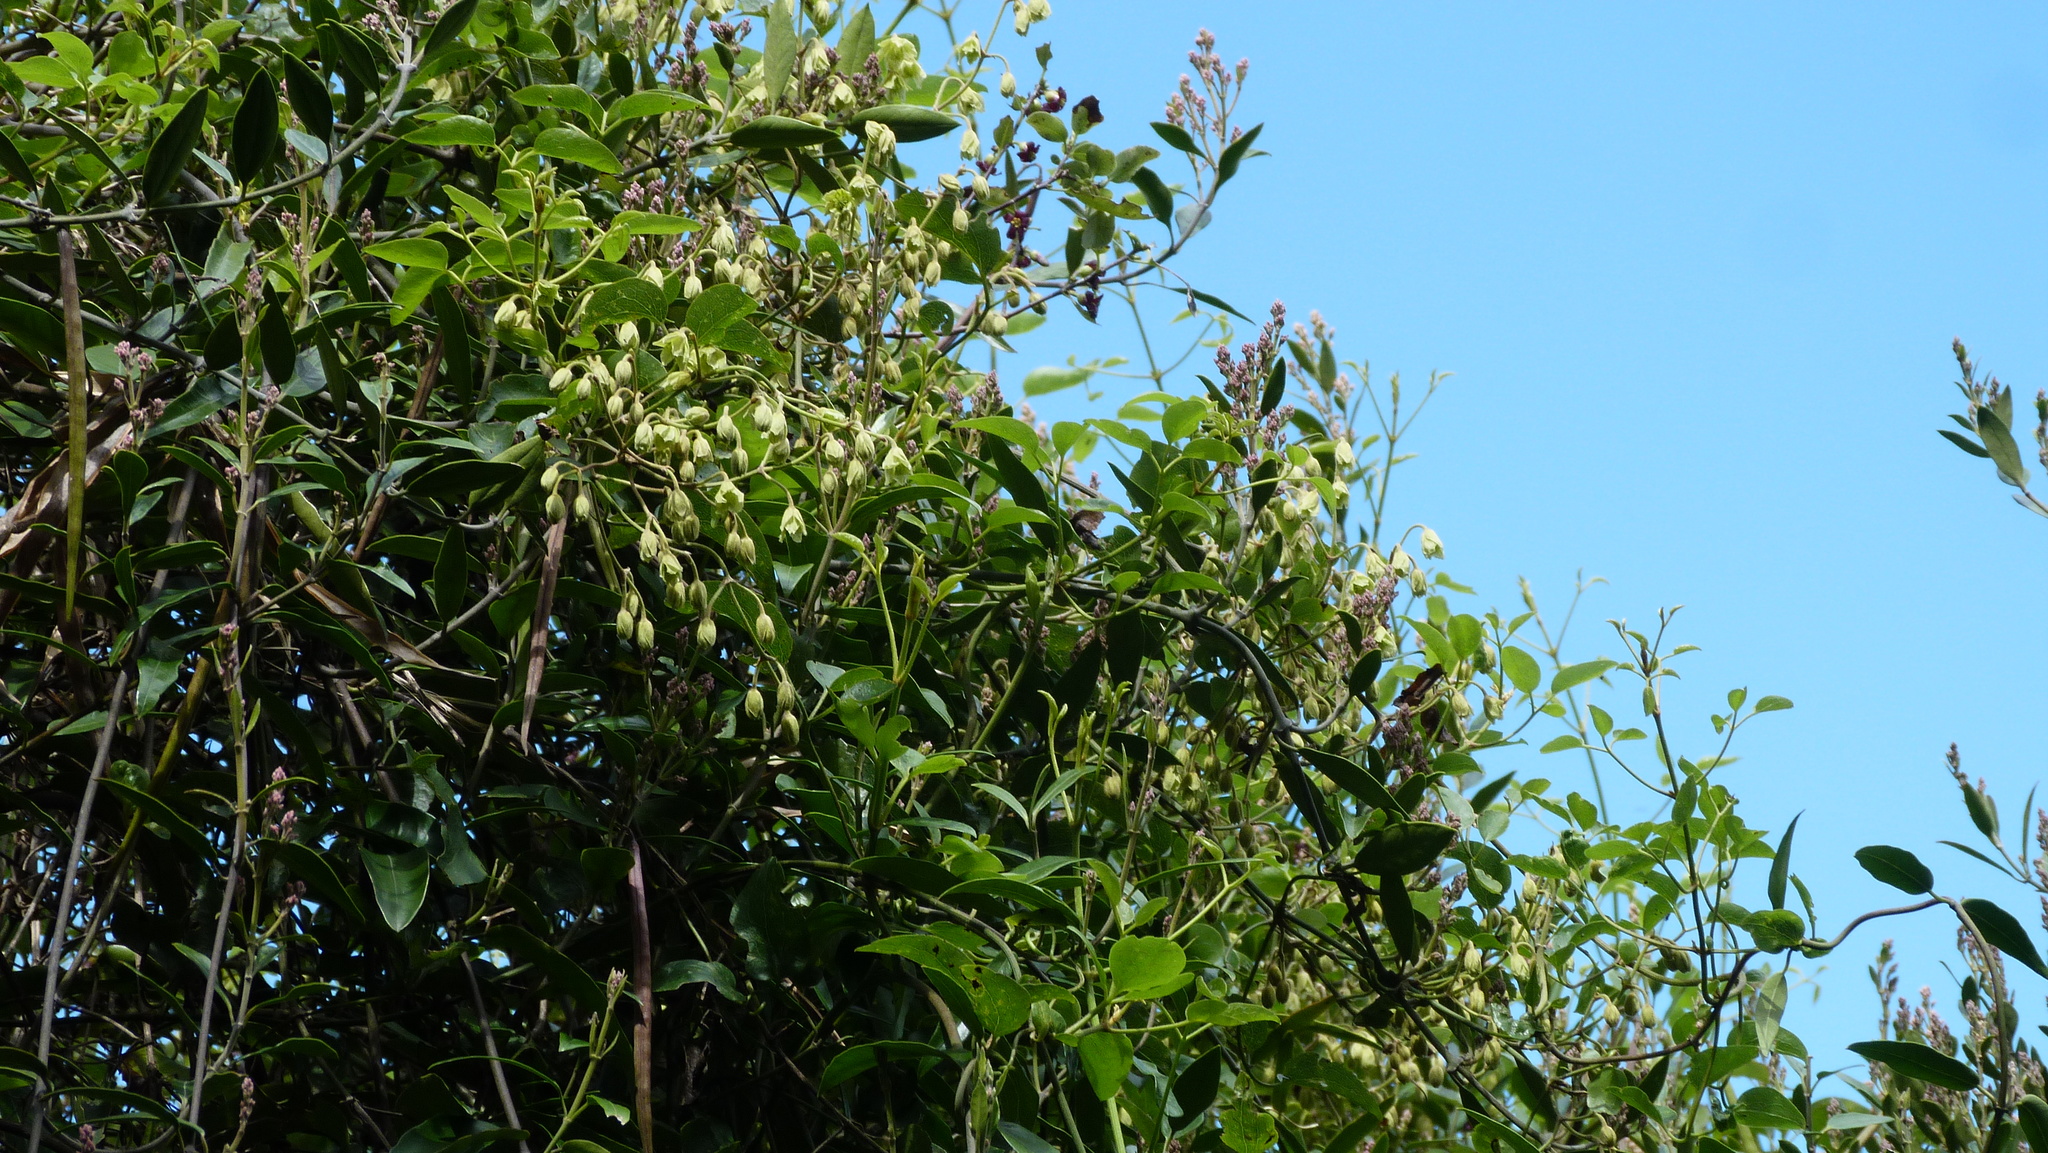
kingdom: Plantae
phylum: Tracheophyta
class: Magnoliopsida
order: Ranunculales
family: Ranunculaceae
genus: Clematis
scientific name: Clematis foetida
